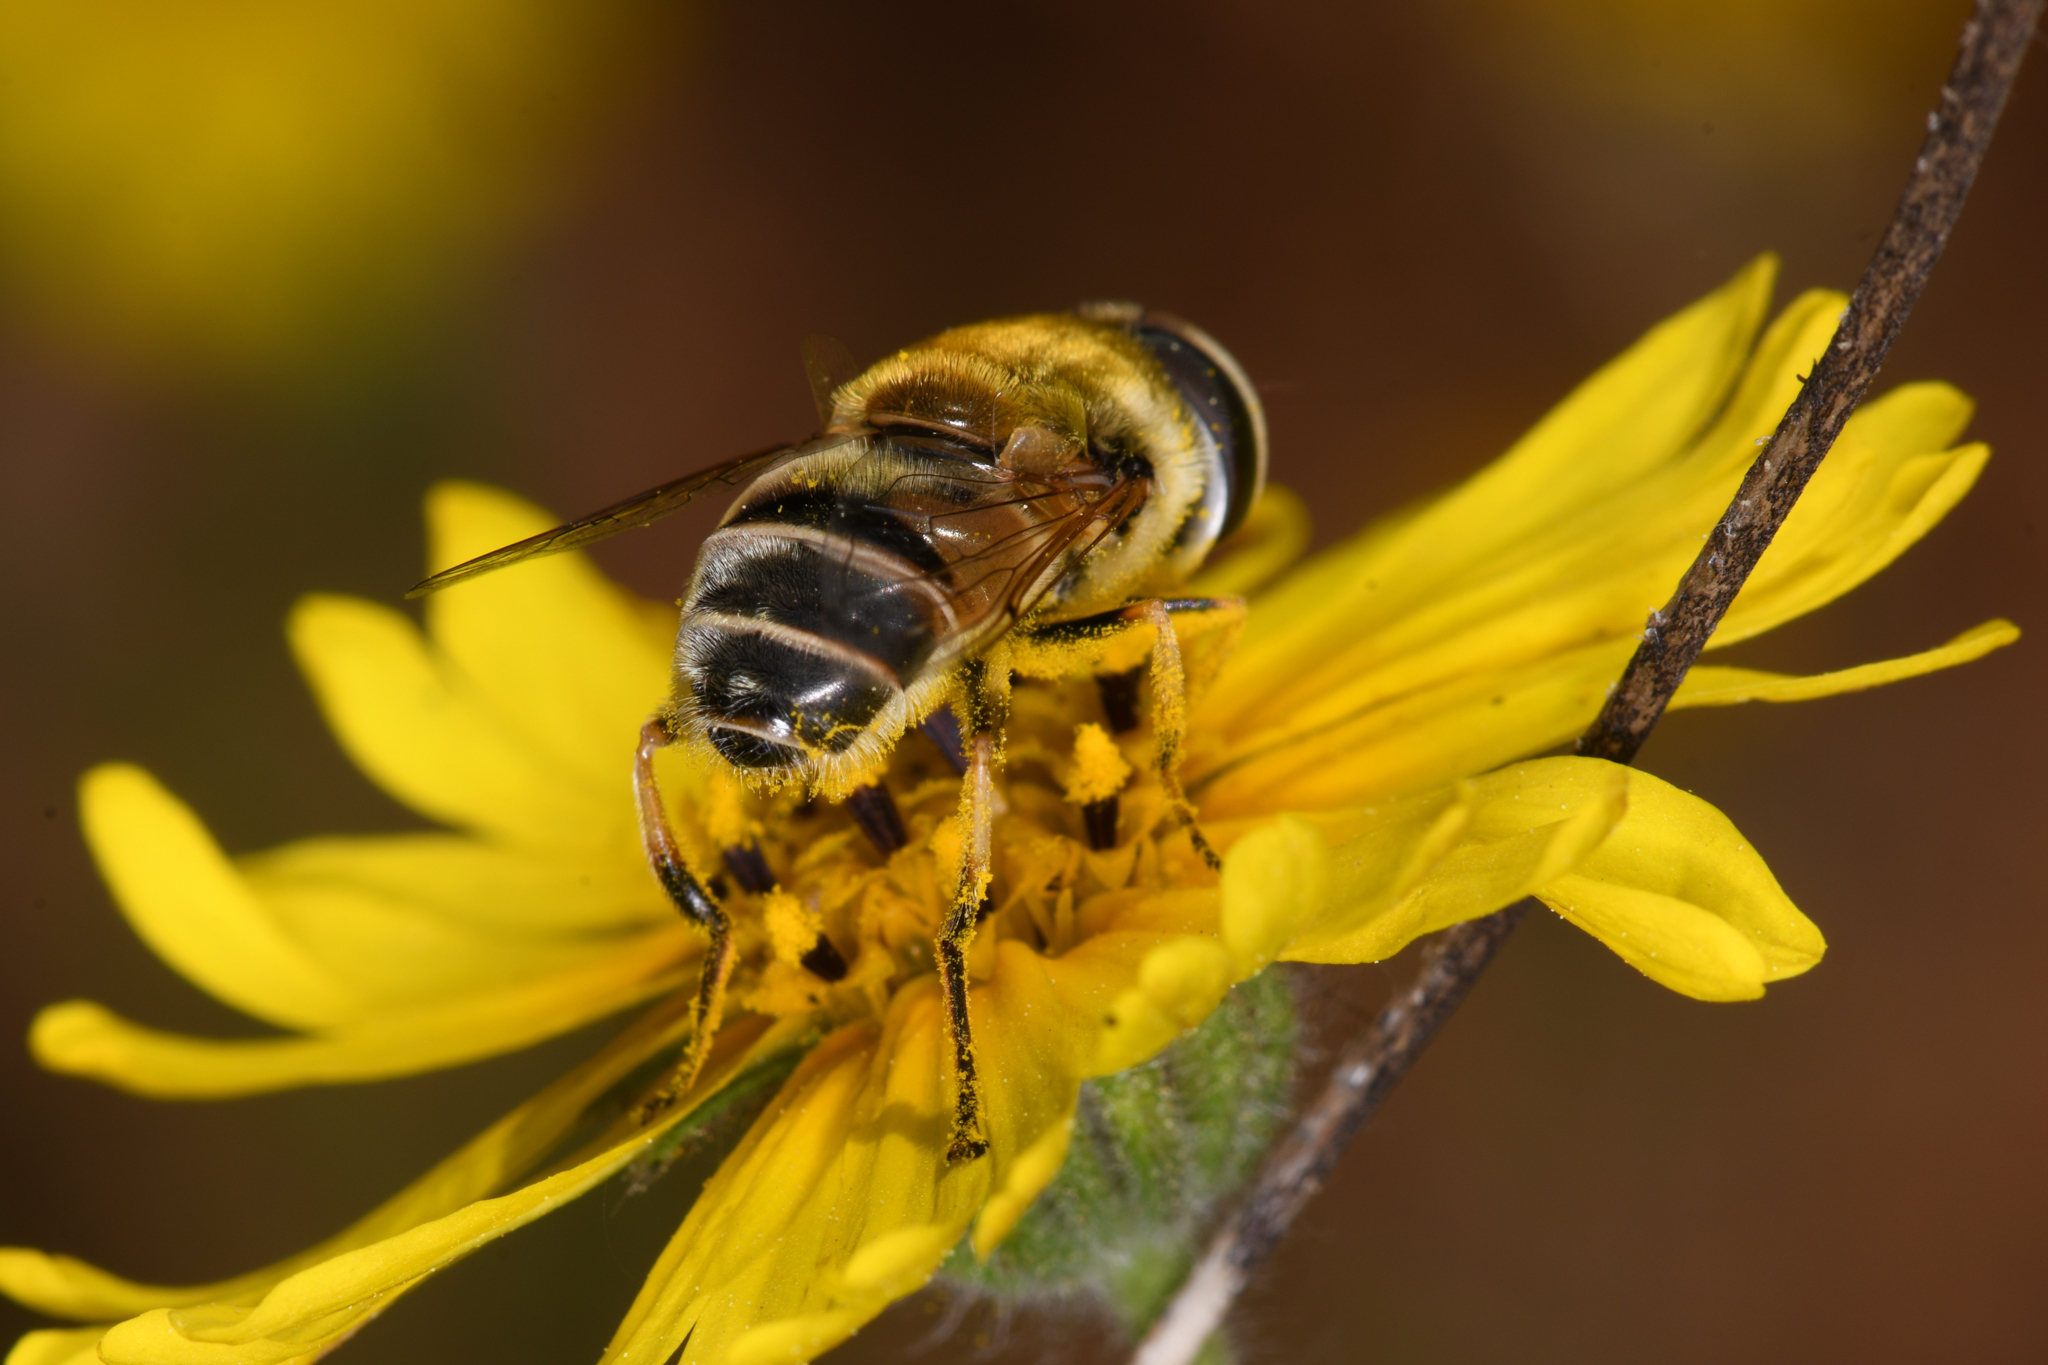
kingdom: Animalia
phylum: Arthropoda
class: Insecta
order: Diptera
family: Syrphidae
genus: Eristalis
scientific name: Eristalis stipator
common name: Yellow-shouldered drone fly
